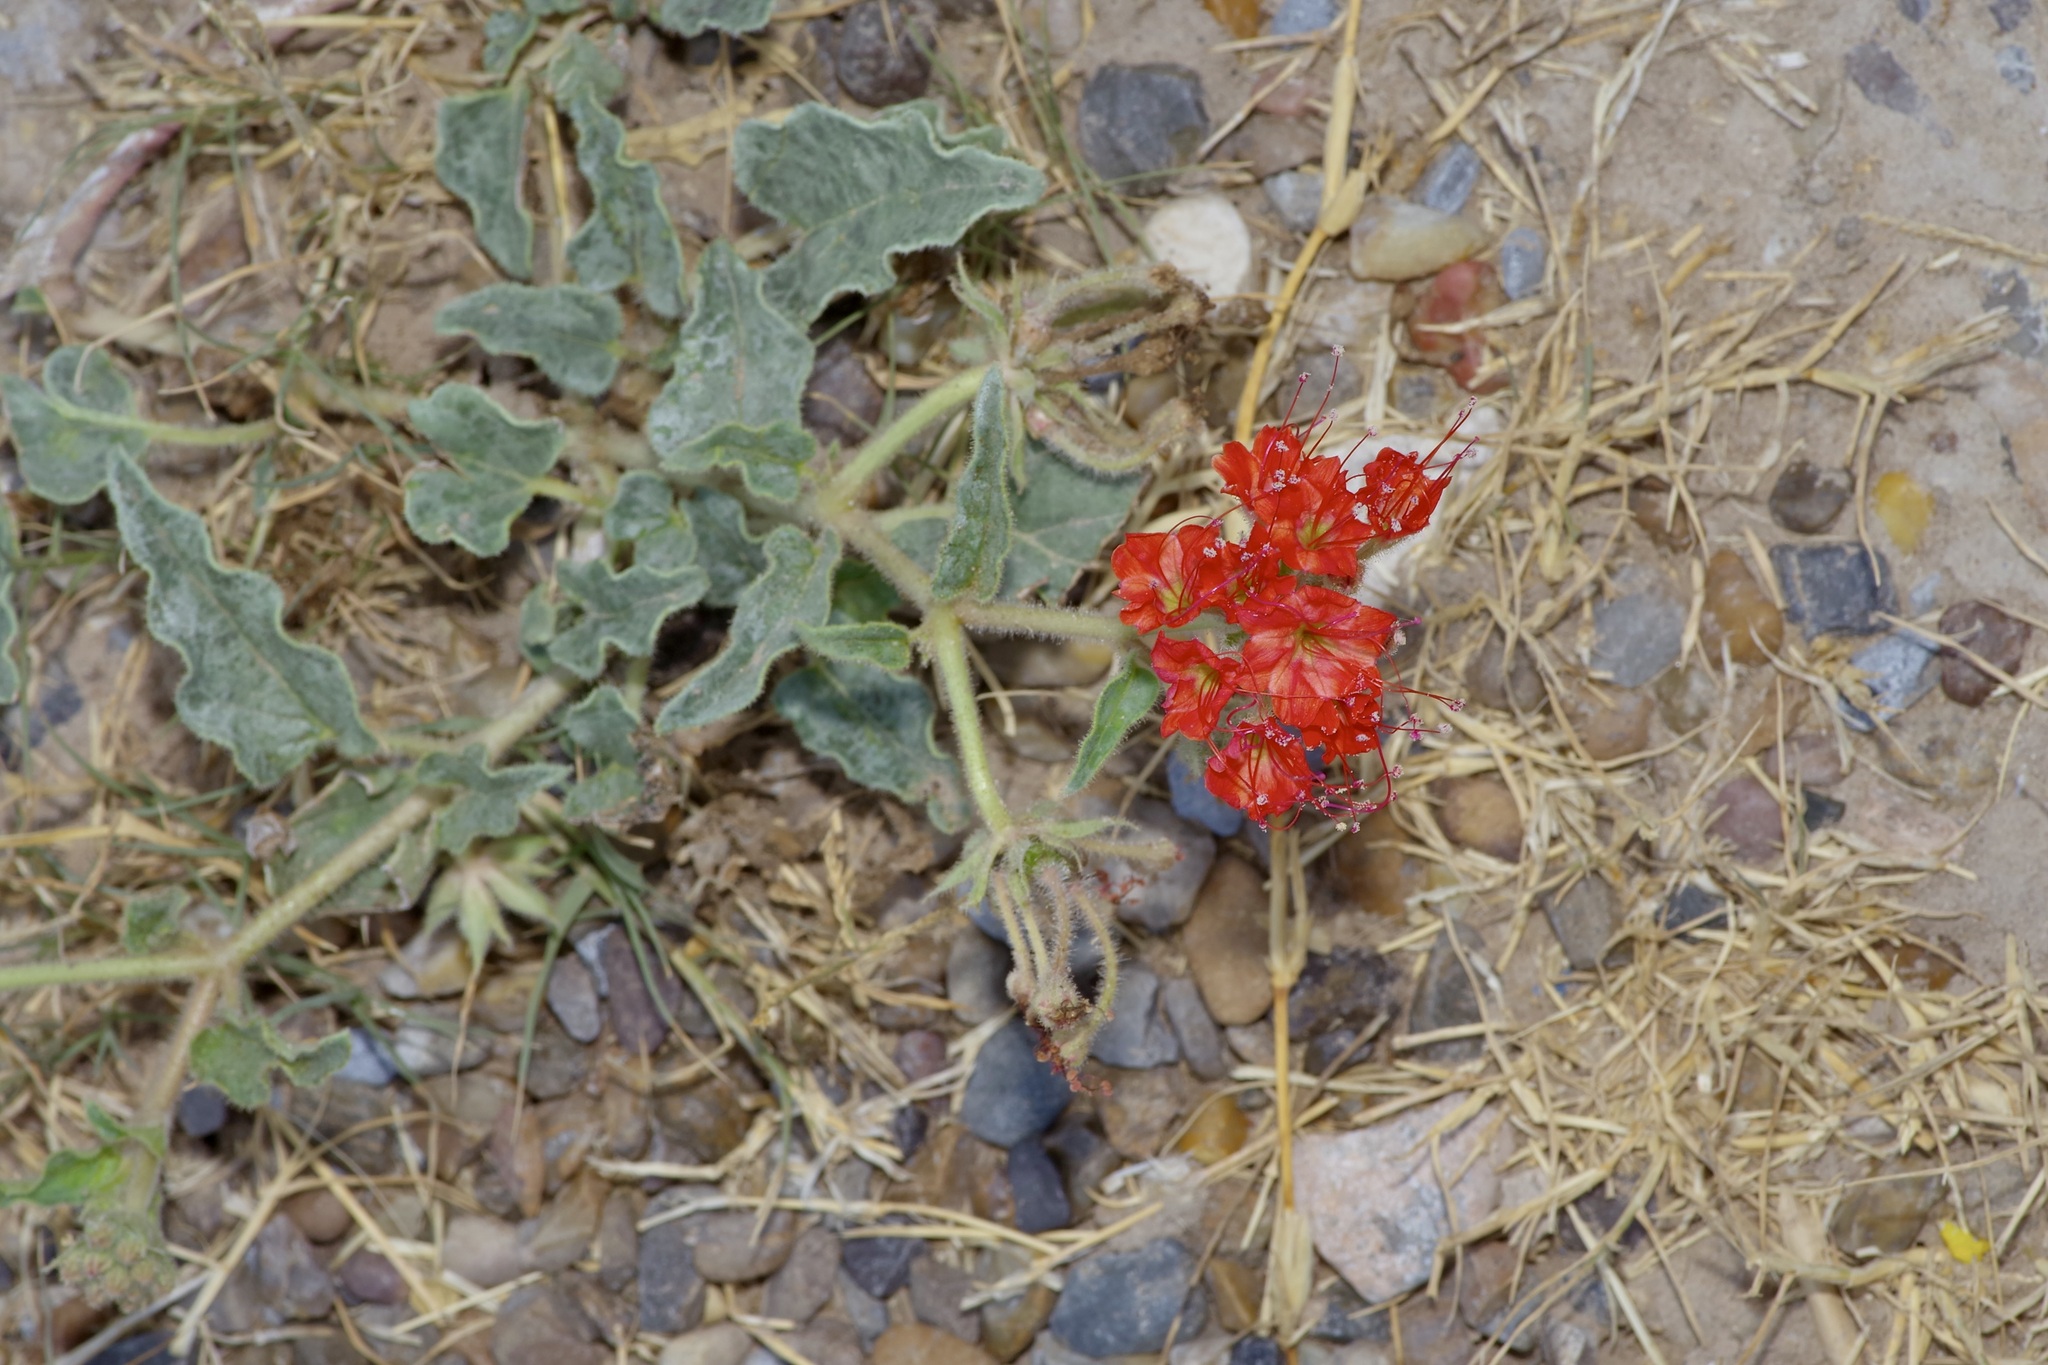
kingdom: Plantae
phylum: Tracheophyta
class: Magnoliopsida
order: Caryophyllales
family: Nyctaginaceae
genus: Nyctaginia
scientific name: Nyctaginia capitata
